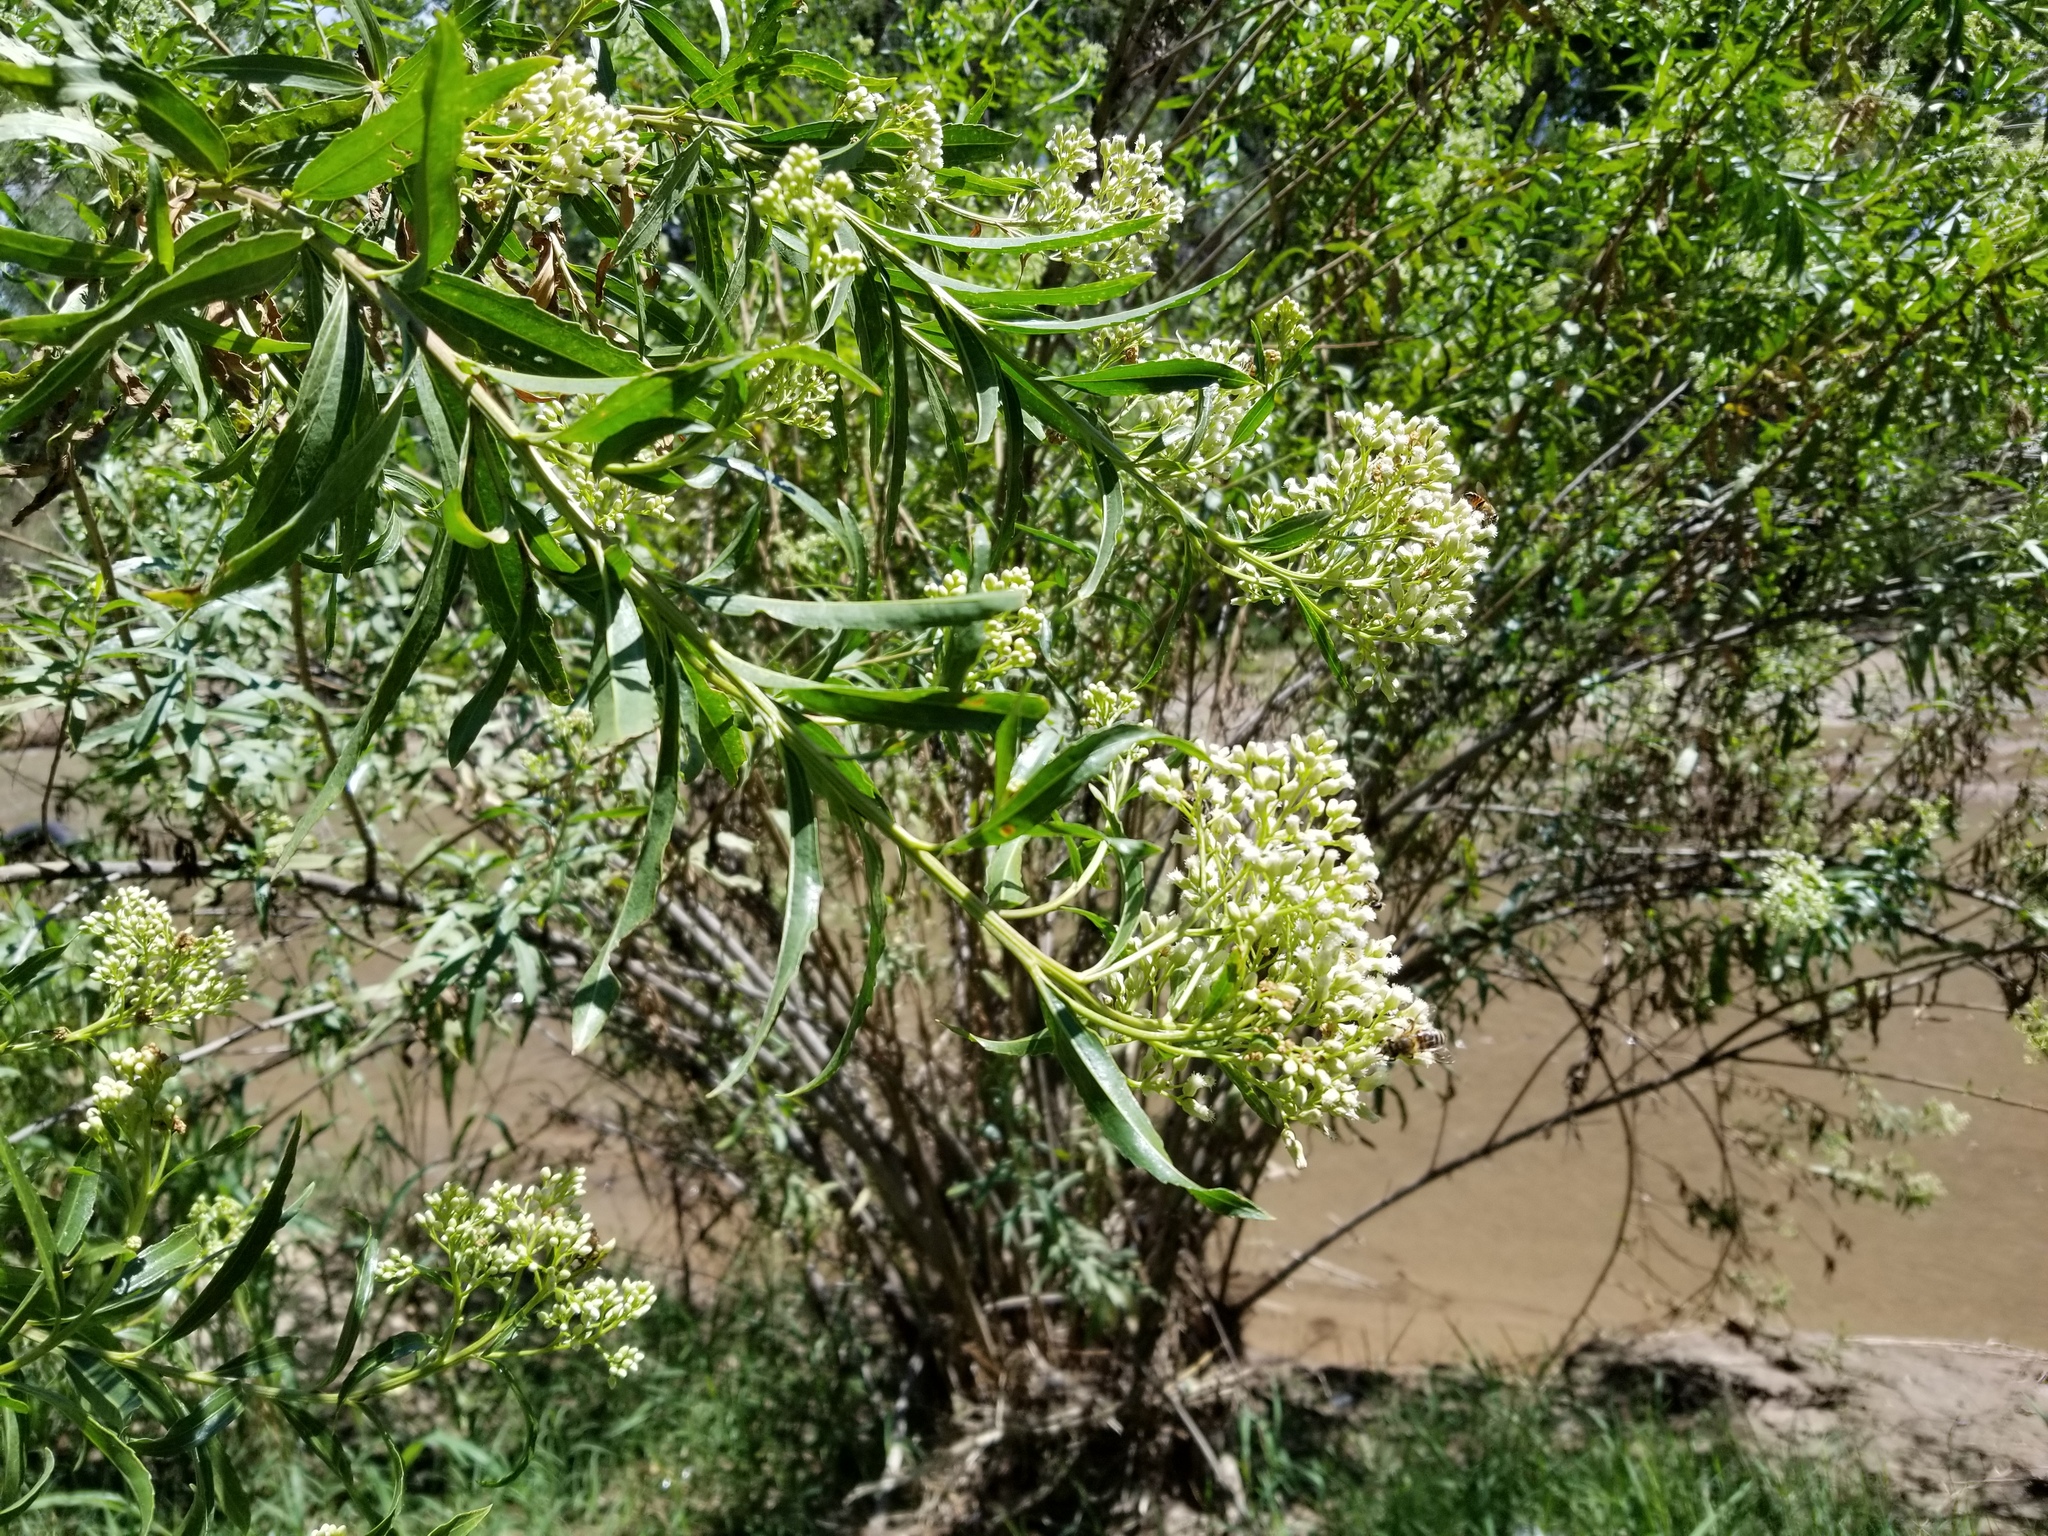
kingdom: Plantae
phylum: Tracheophyta
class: Magnoliopsida
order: Asterales
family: Asteraceae
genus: Baccharis
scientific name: Baccharis salicifolia
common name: Sticky baccharis
